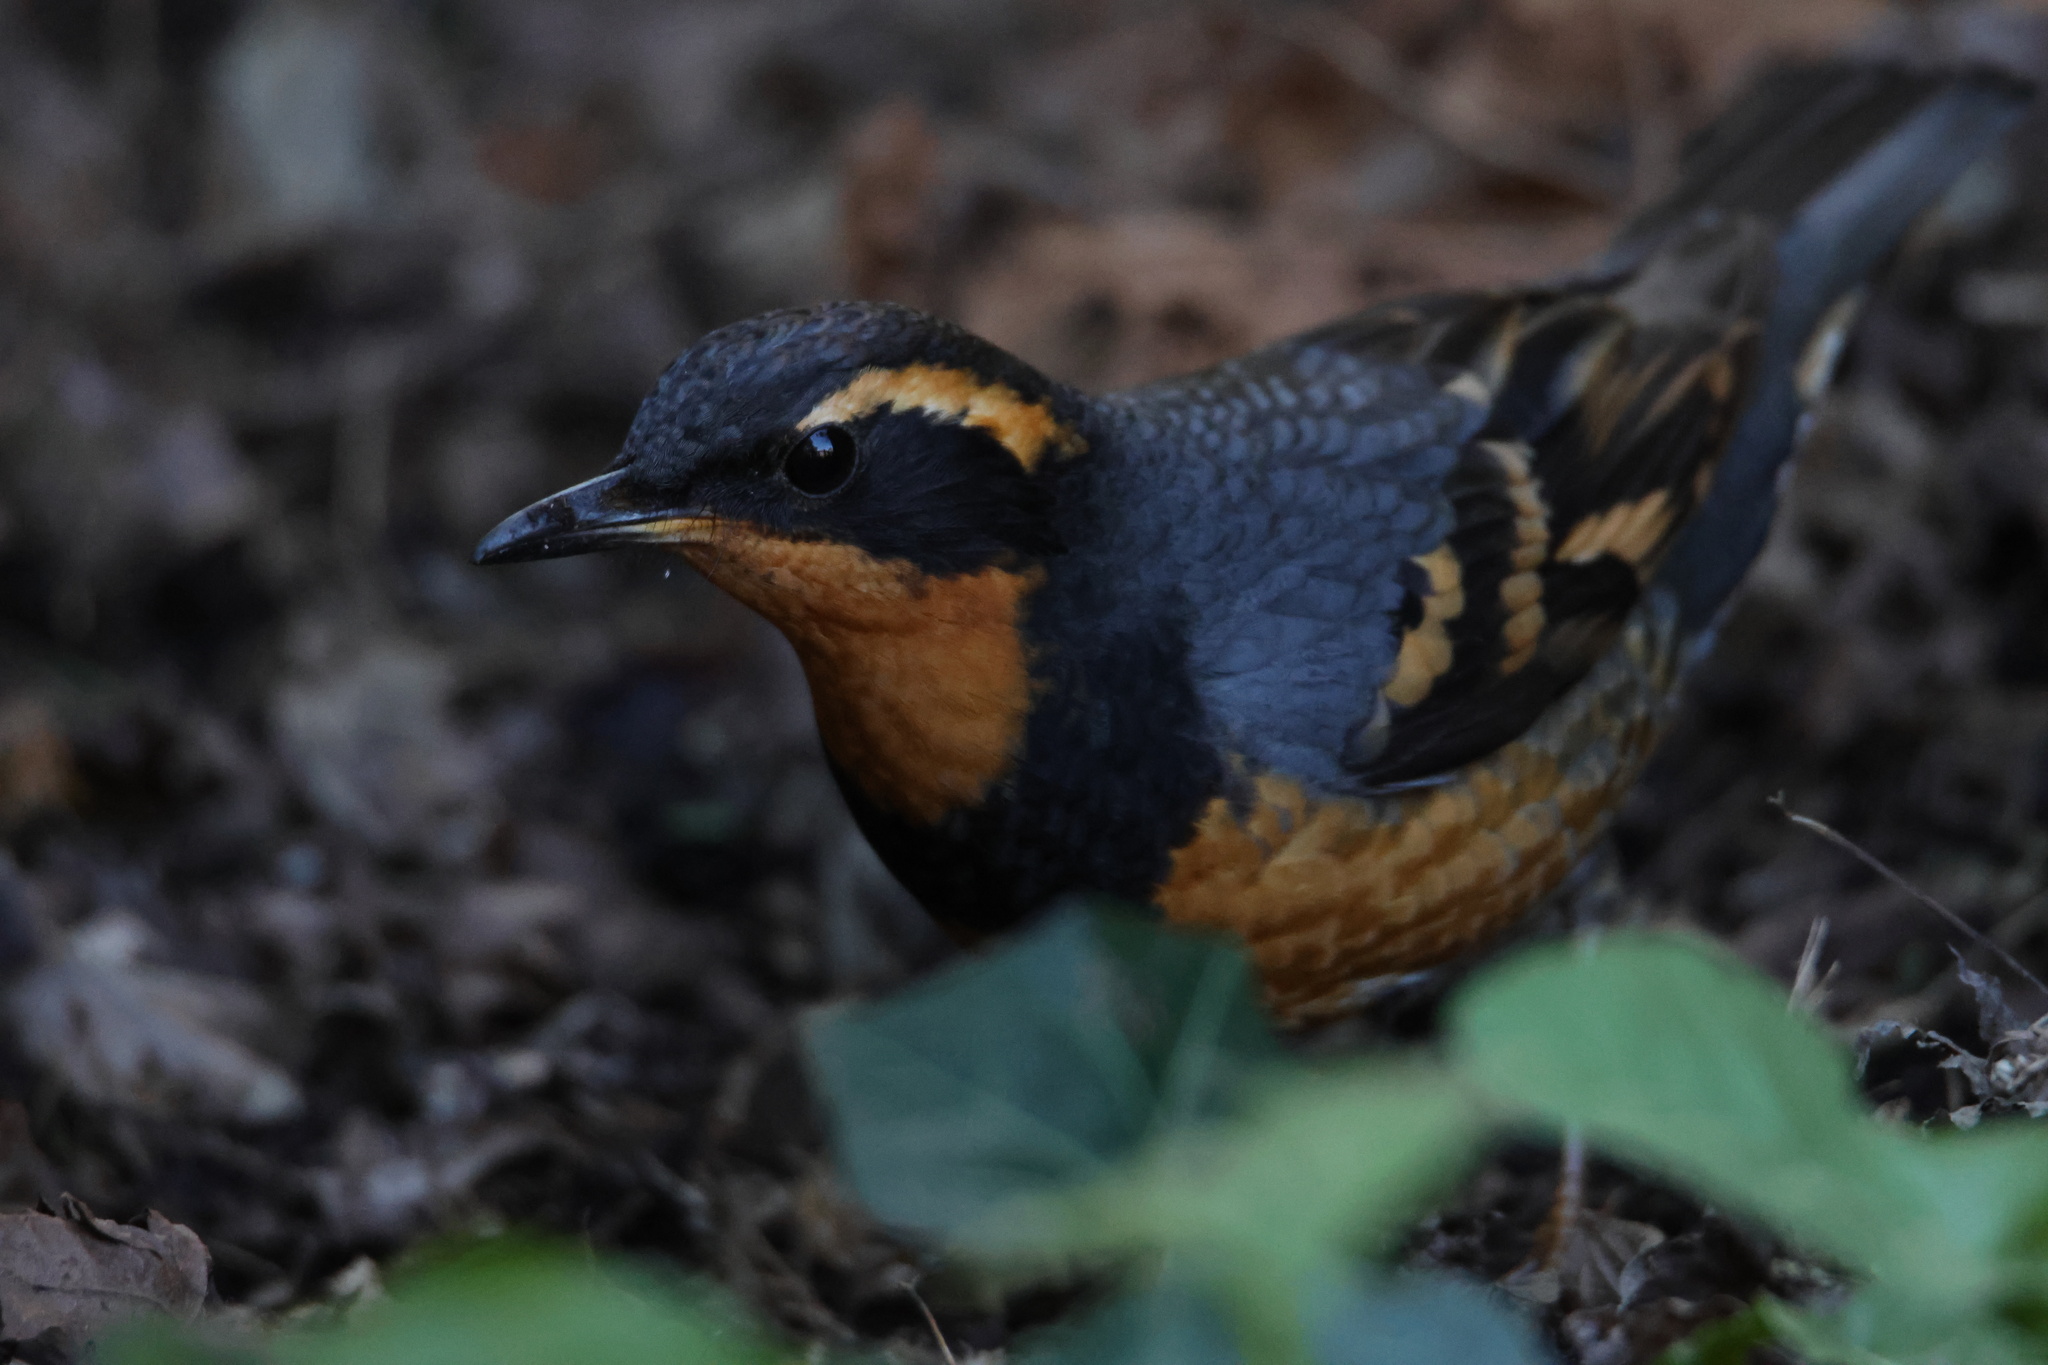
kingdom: Animalia
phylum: Chordata
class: Aves
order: Passeriformes
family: Turdidae
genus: Ixoreus
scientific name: Ixoreus naevius
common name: Varied thrush
